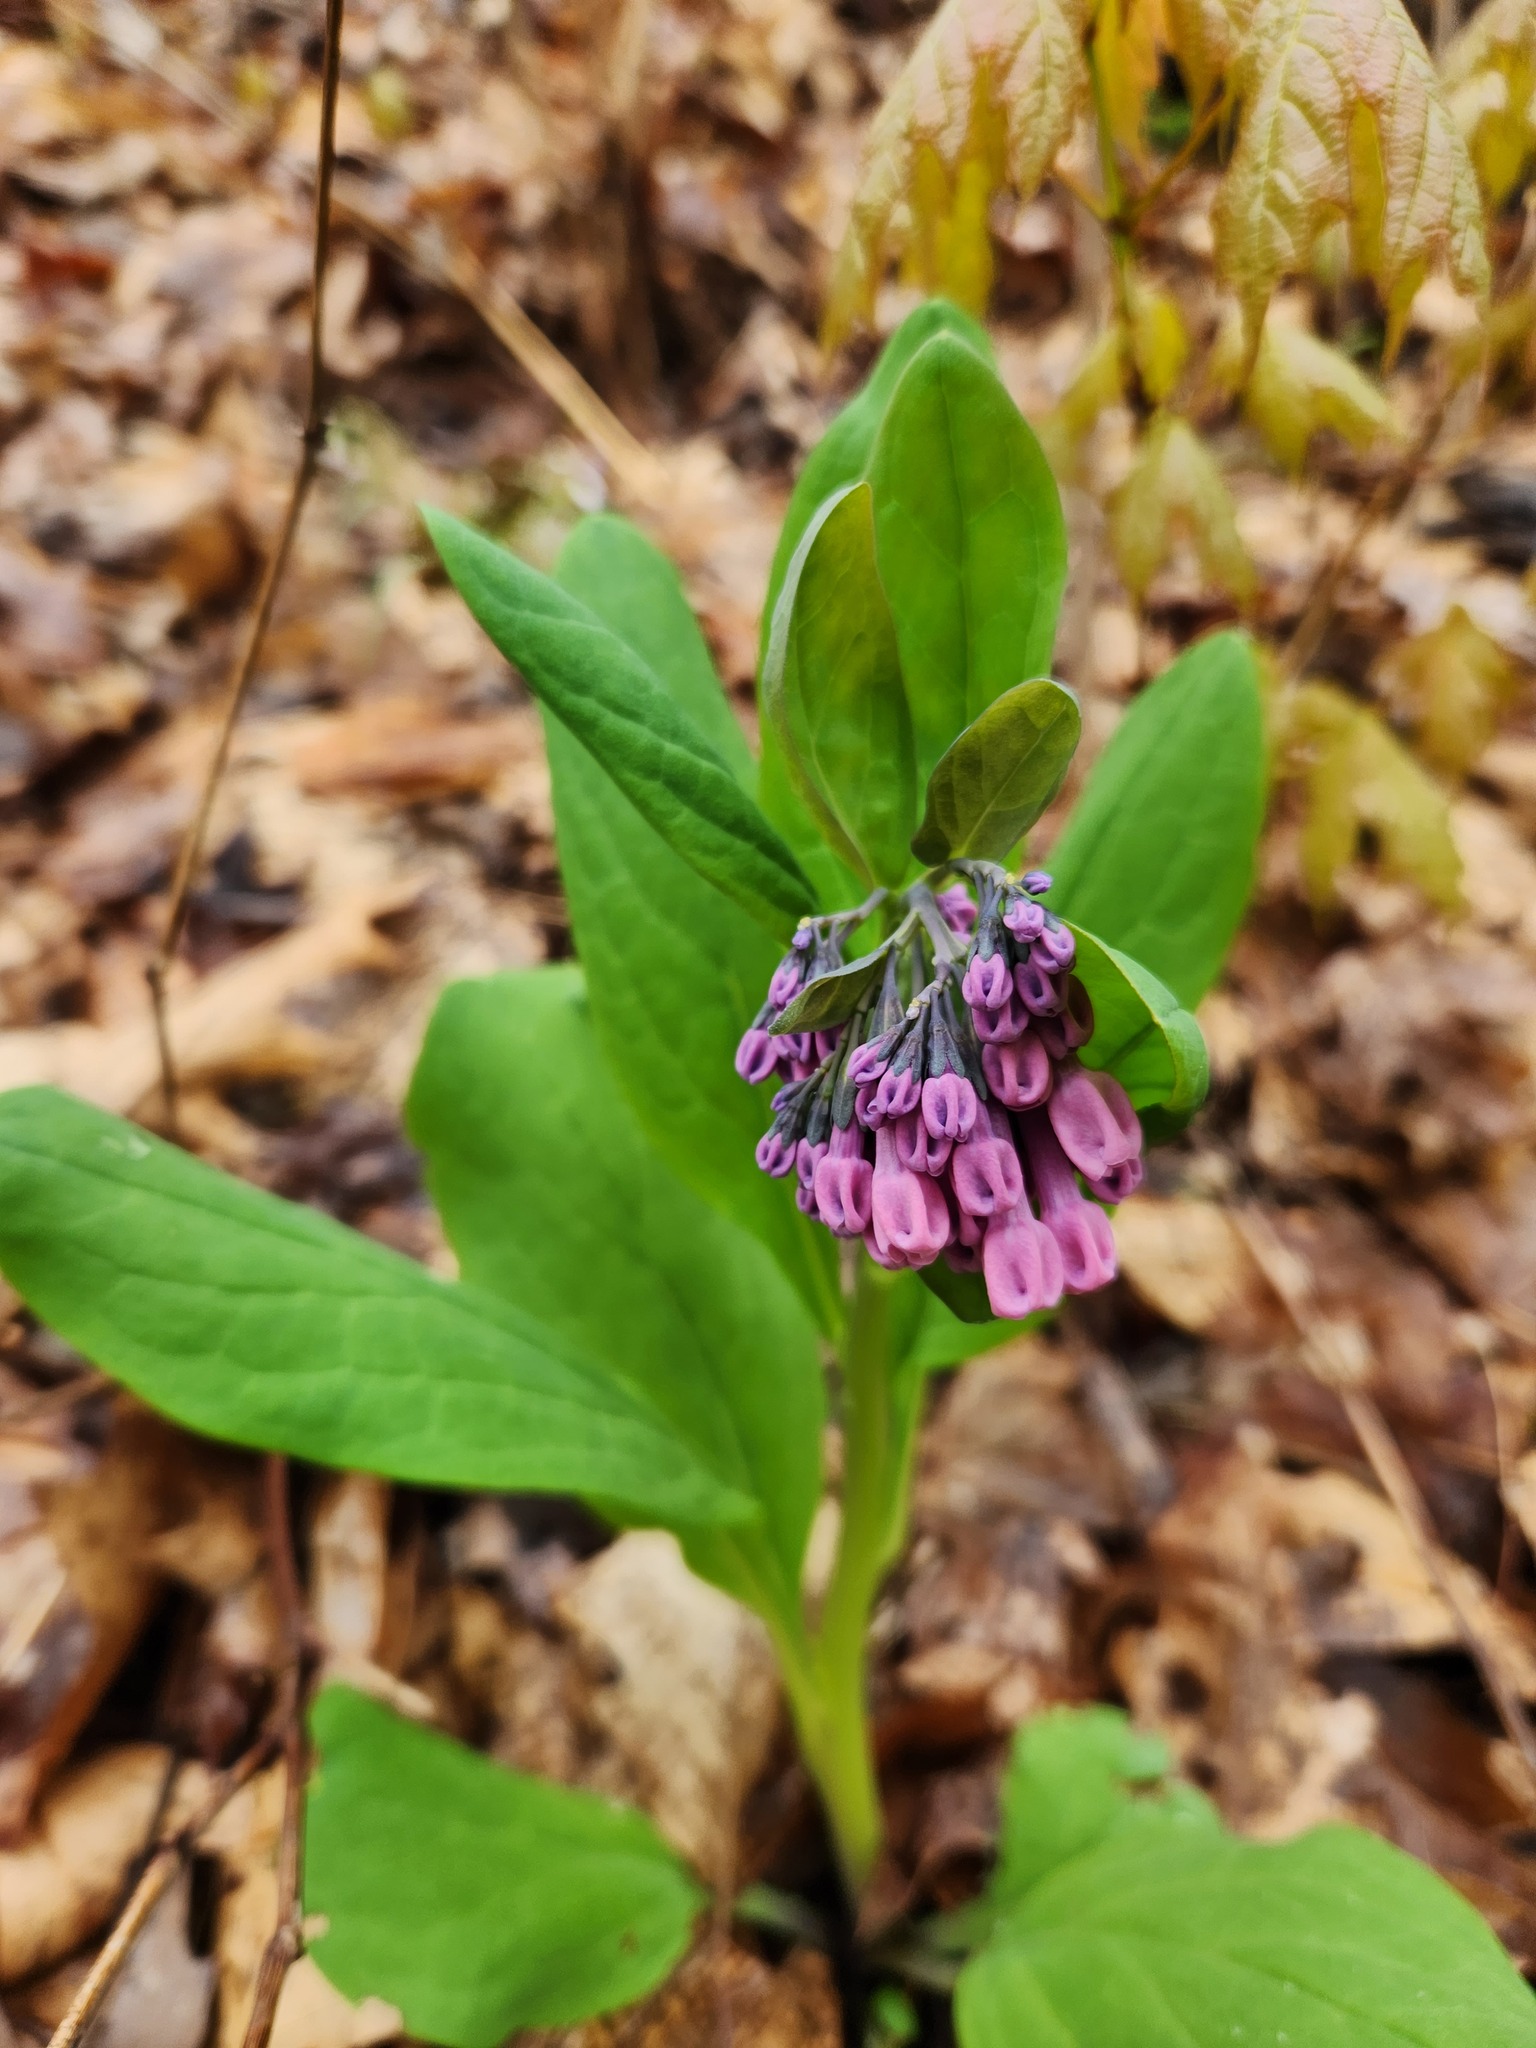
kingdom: Plantae
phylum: Tracheophyta
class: Magnoliopsida
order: Boraginales
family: Boraginaceae
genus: Mertensia
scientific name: Mertensia virginica
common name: Virginia bluebells
